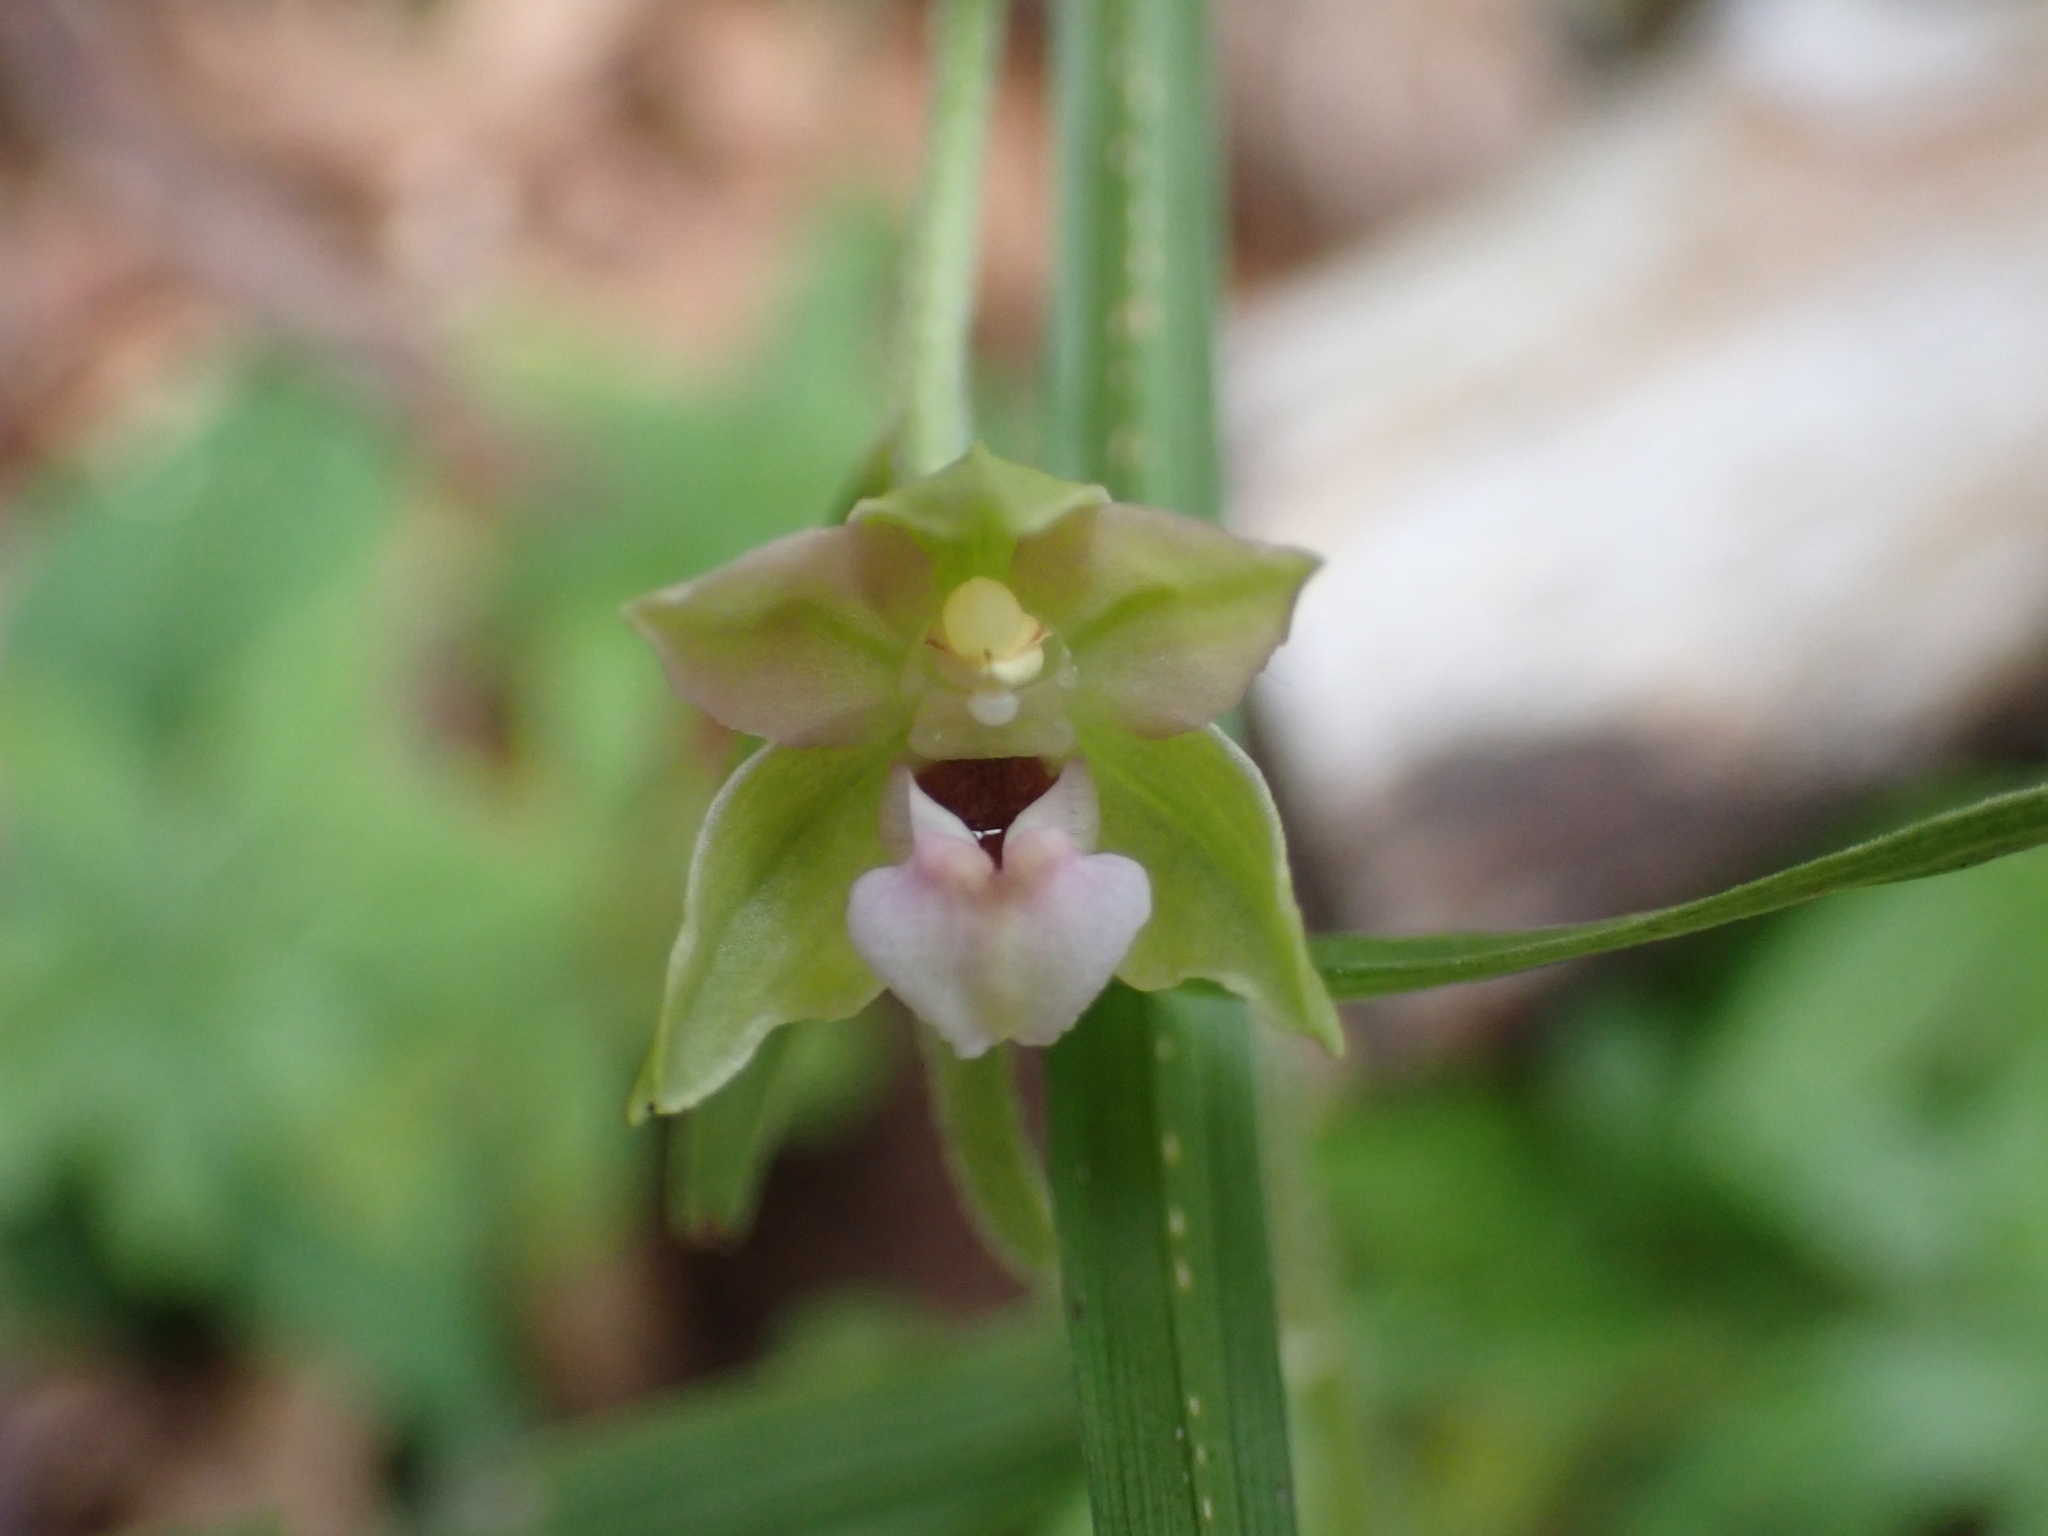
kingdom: Plantae
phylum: Tracheophyta
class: Liliopsida
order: Asparagales
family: Orchidaceae
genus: Epipactis
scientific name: Epipactis helleborine
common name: Broad-leaved helleborine
